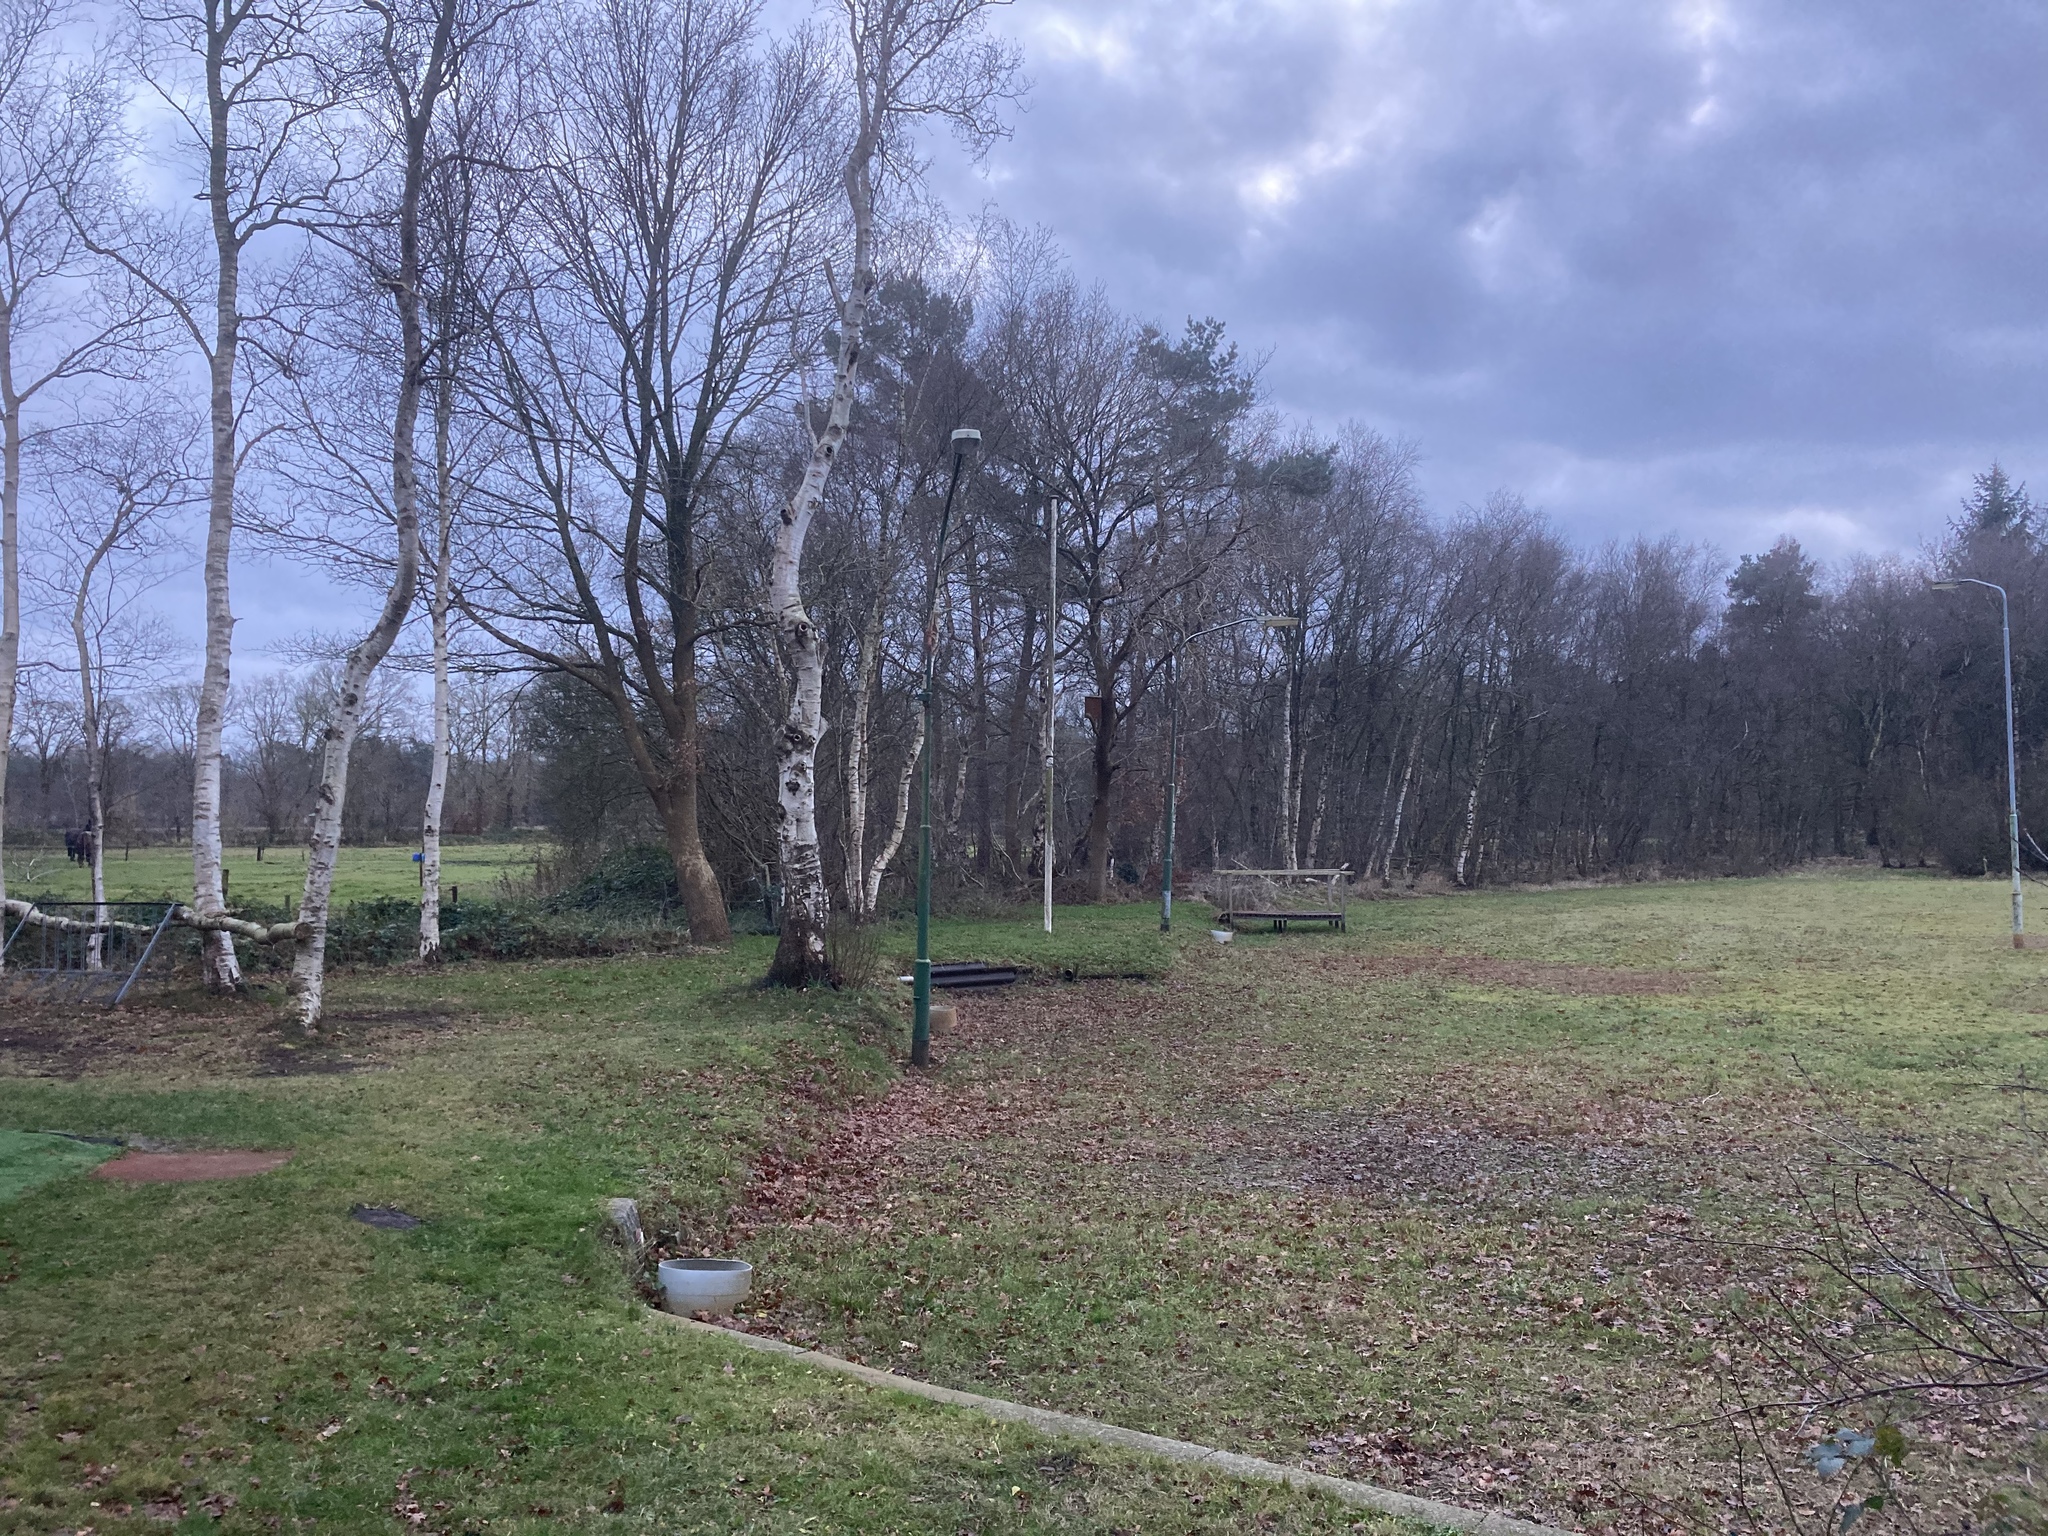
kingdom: Plantae
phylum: Tracheophyta
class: Magnoliopsida
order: Fagales
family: Betulaceae
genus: Betula
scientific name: Betula pendula
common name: Silver birch
